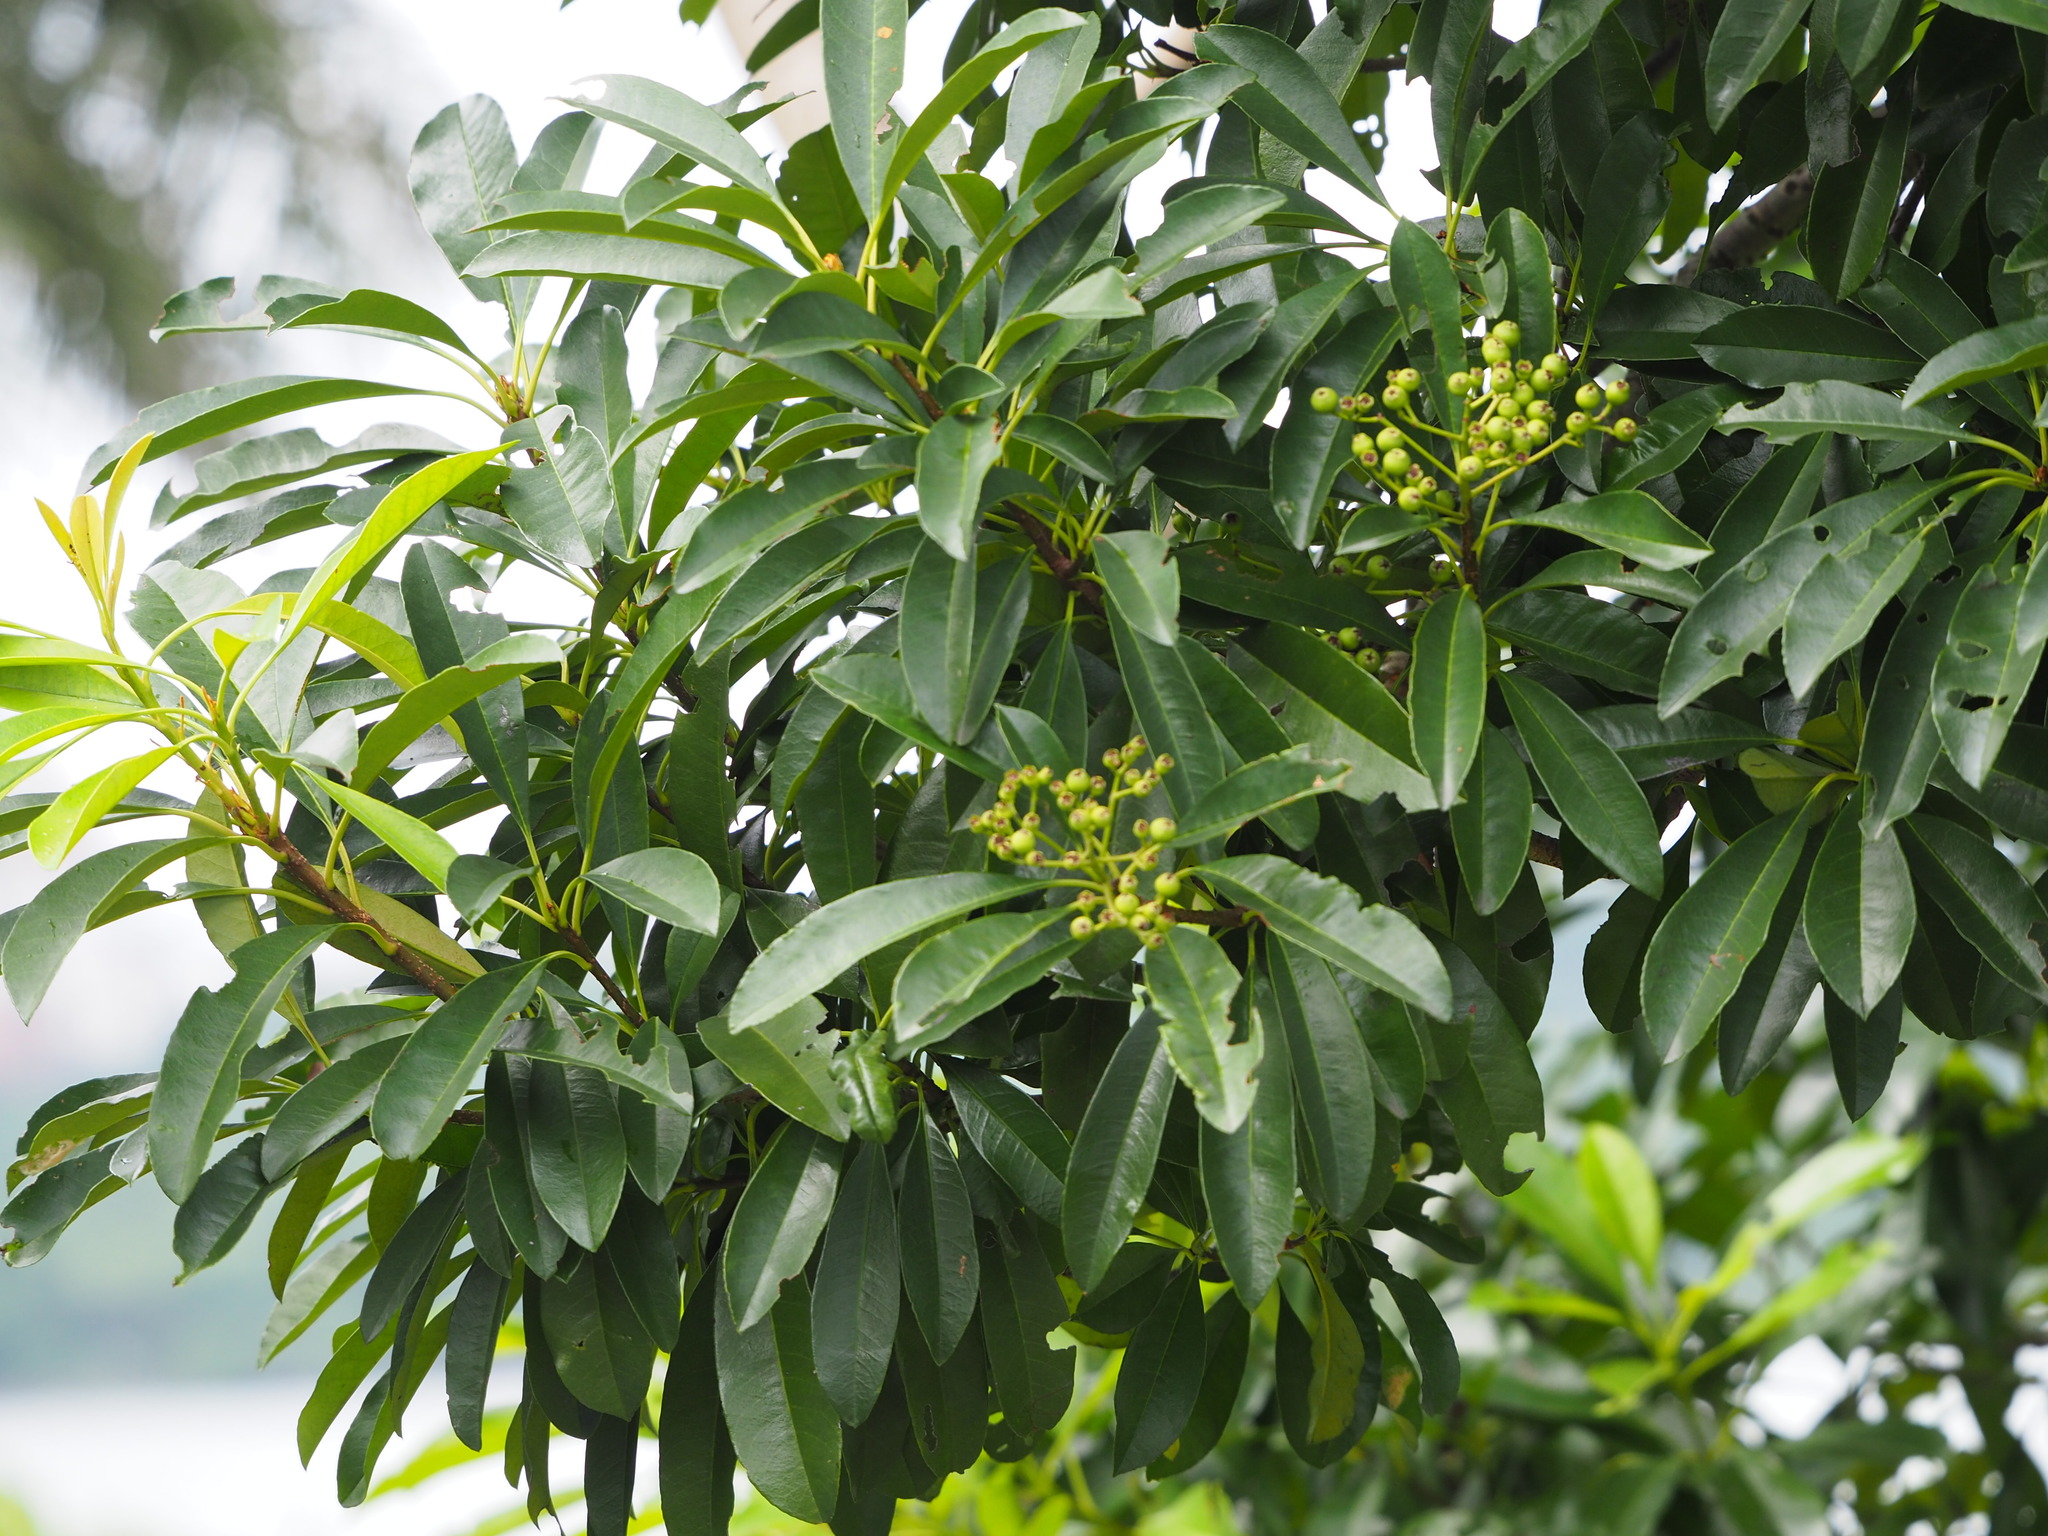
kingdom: Plantae
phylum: Tracheophyta
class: Magnoliopsida
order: Rosales
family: Rosaceae
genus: Stranvaesia
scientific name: Stranvaesia bodinieri
